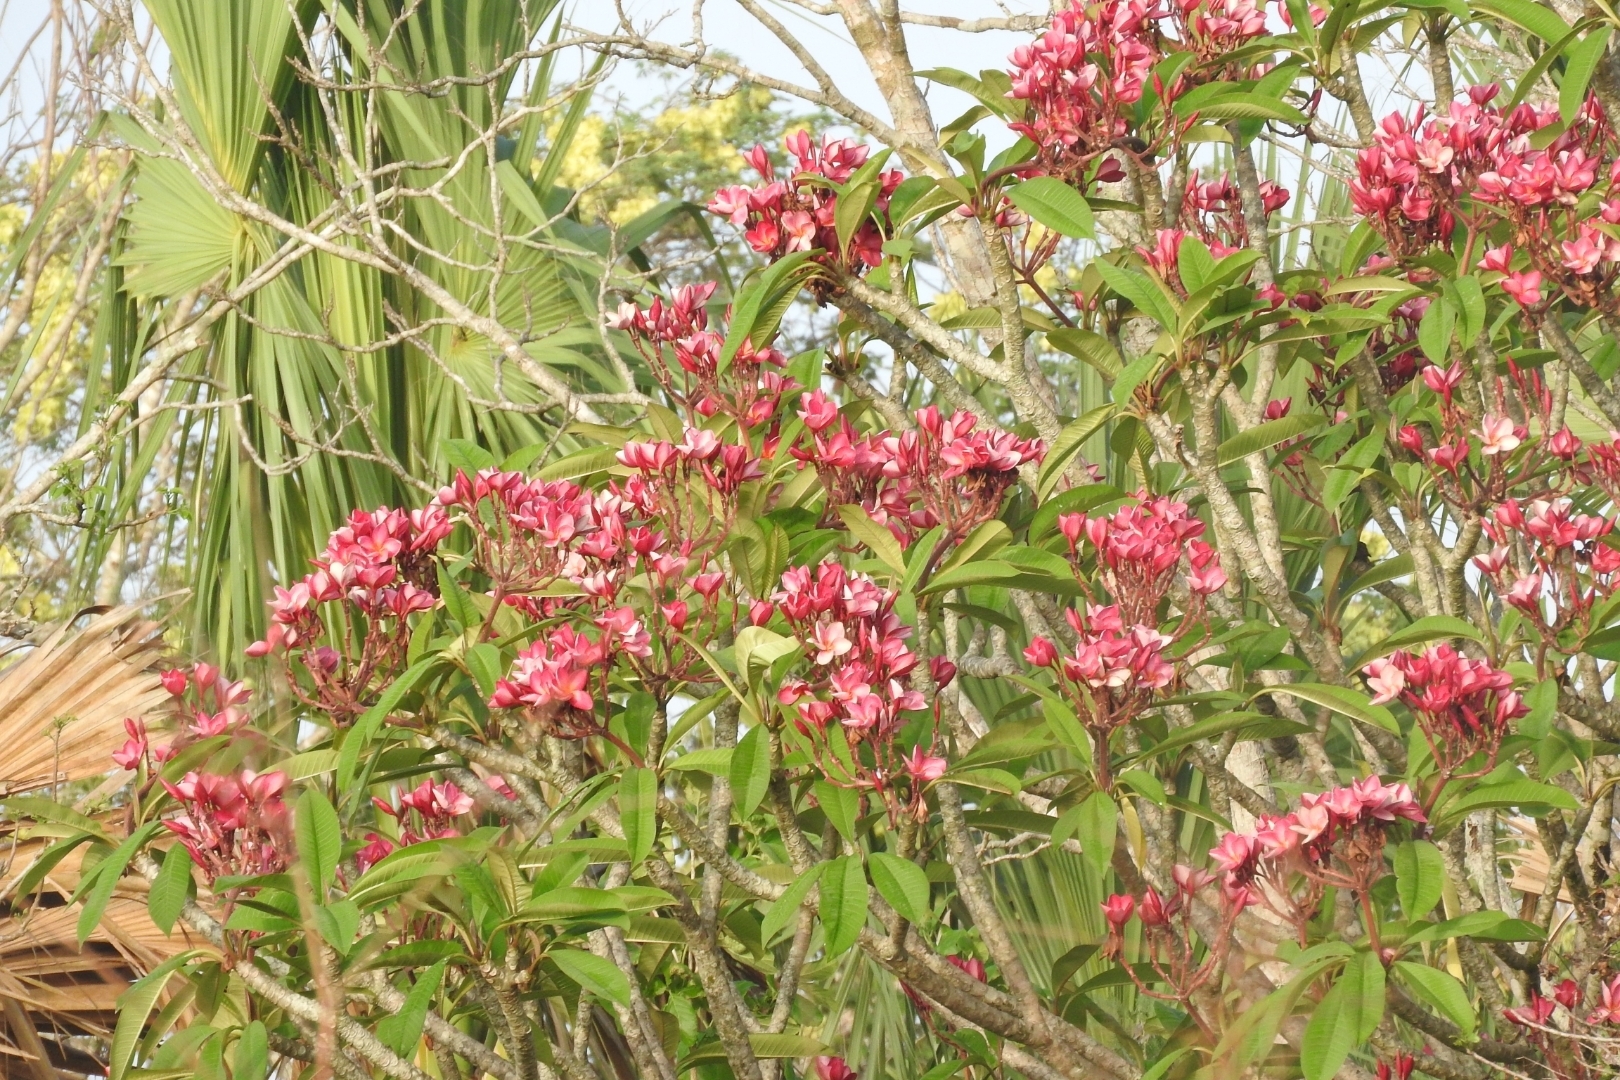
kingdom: Plantae
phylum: Tracheophyta
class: Magnoliopsida
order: Gentianales
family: Apocynaceae
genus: Plumeria
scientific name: Plumeria rubra
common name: Pagoda-tree
